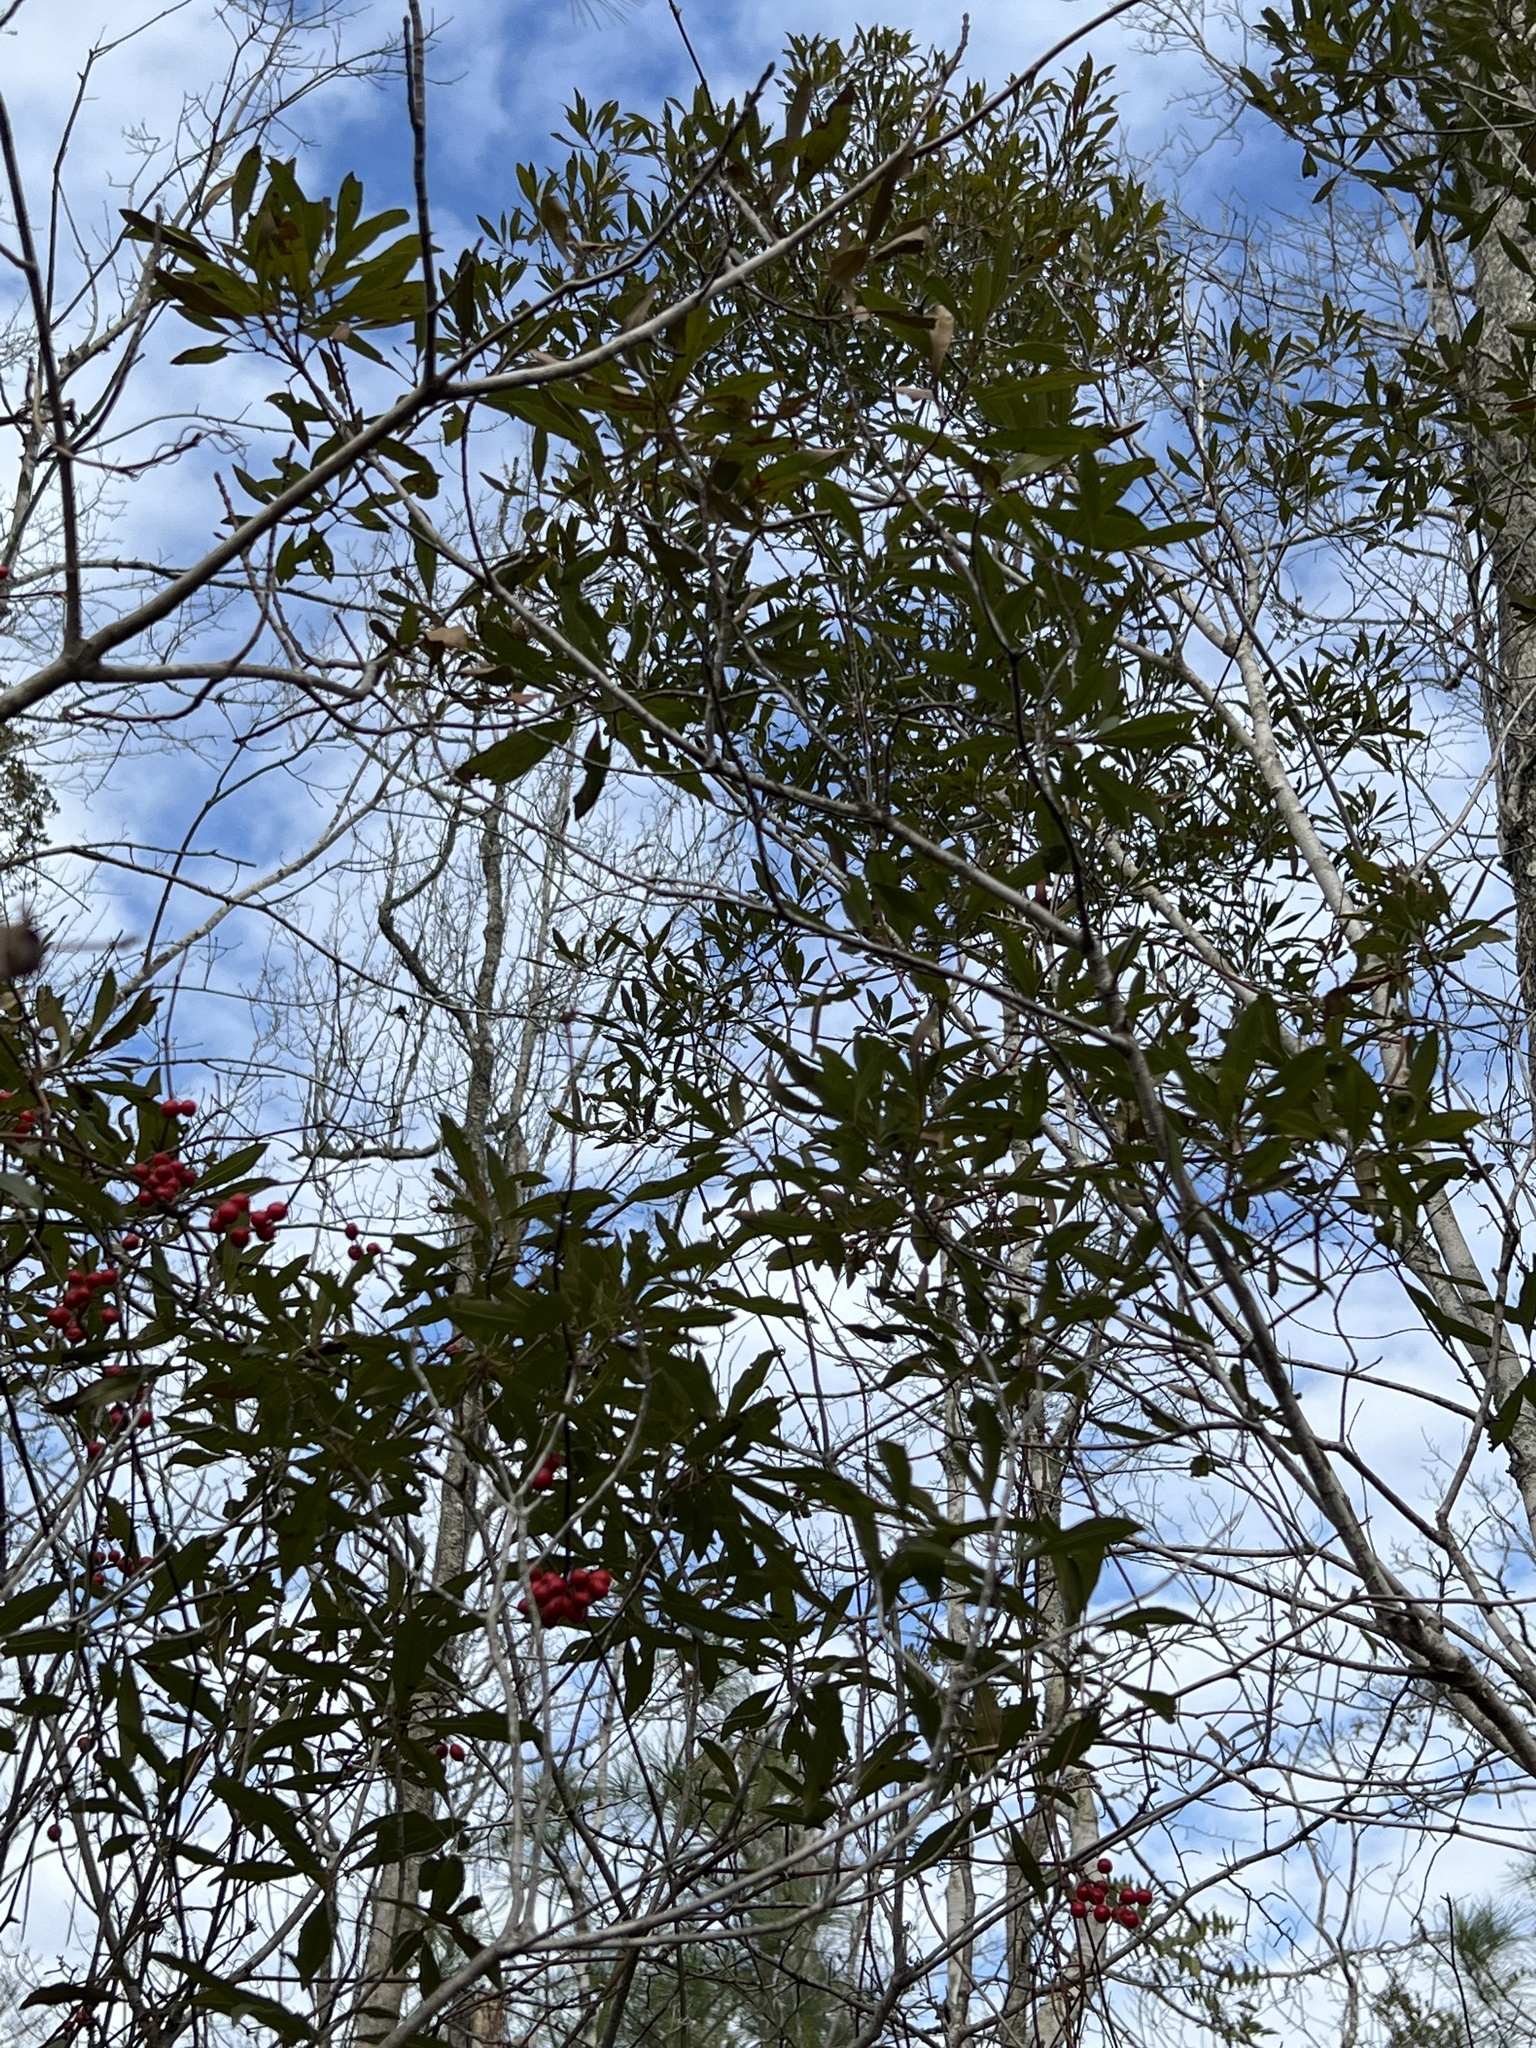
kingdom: Plantae
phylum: Tracheophyta
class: Magnoliopsida
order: Fagales
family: Myricaceae
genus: Morella
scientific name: Morella cerifera
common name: Wax myrtle
